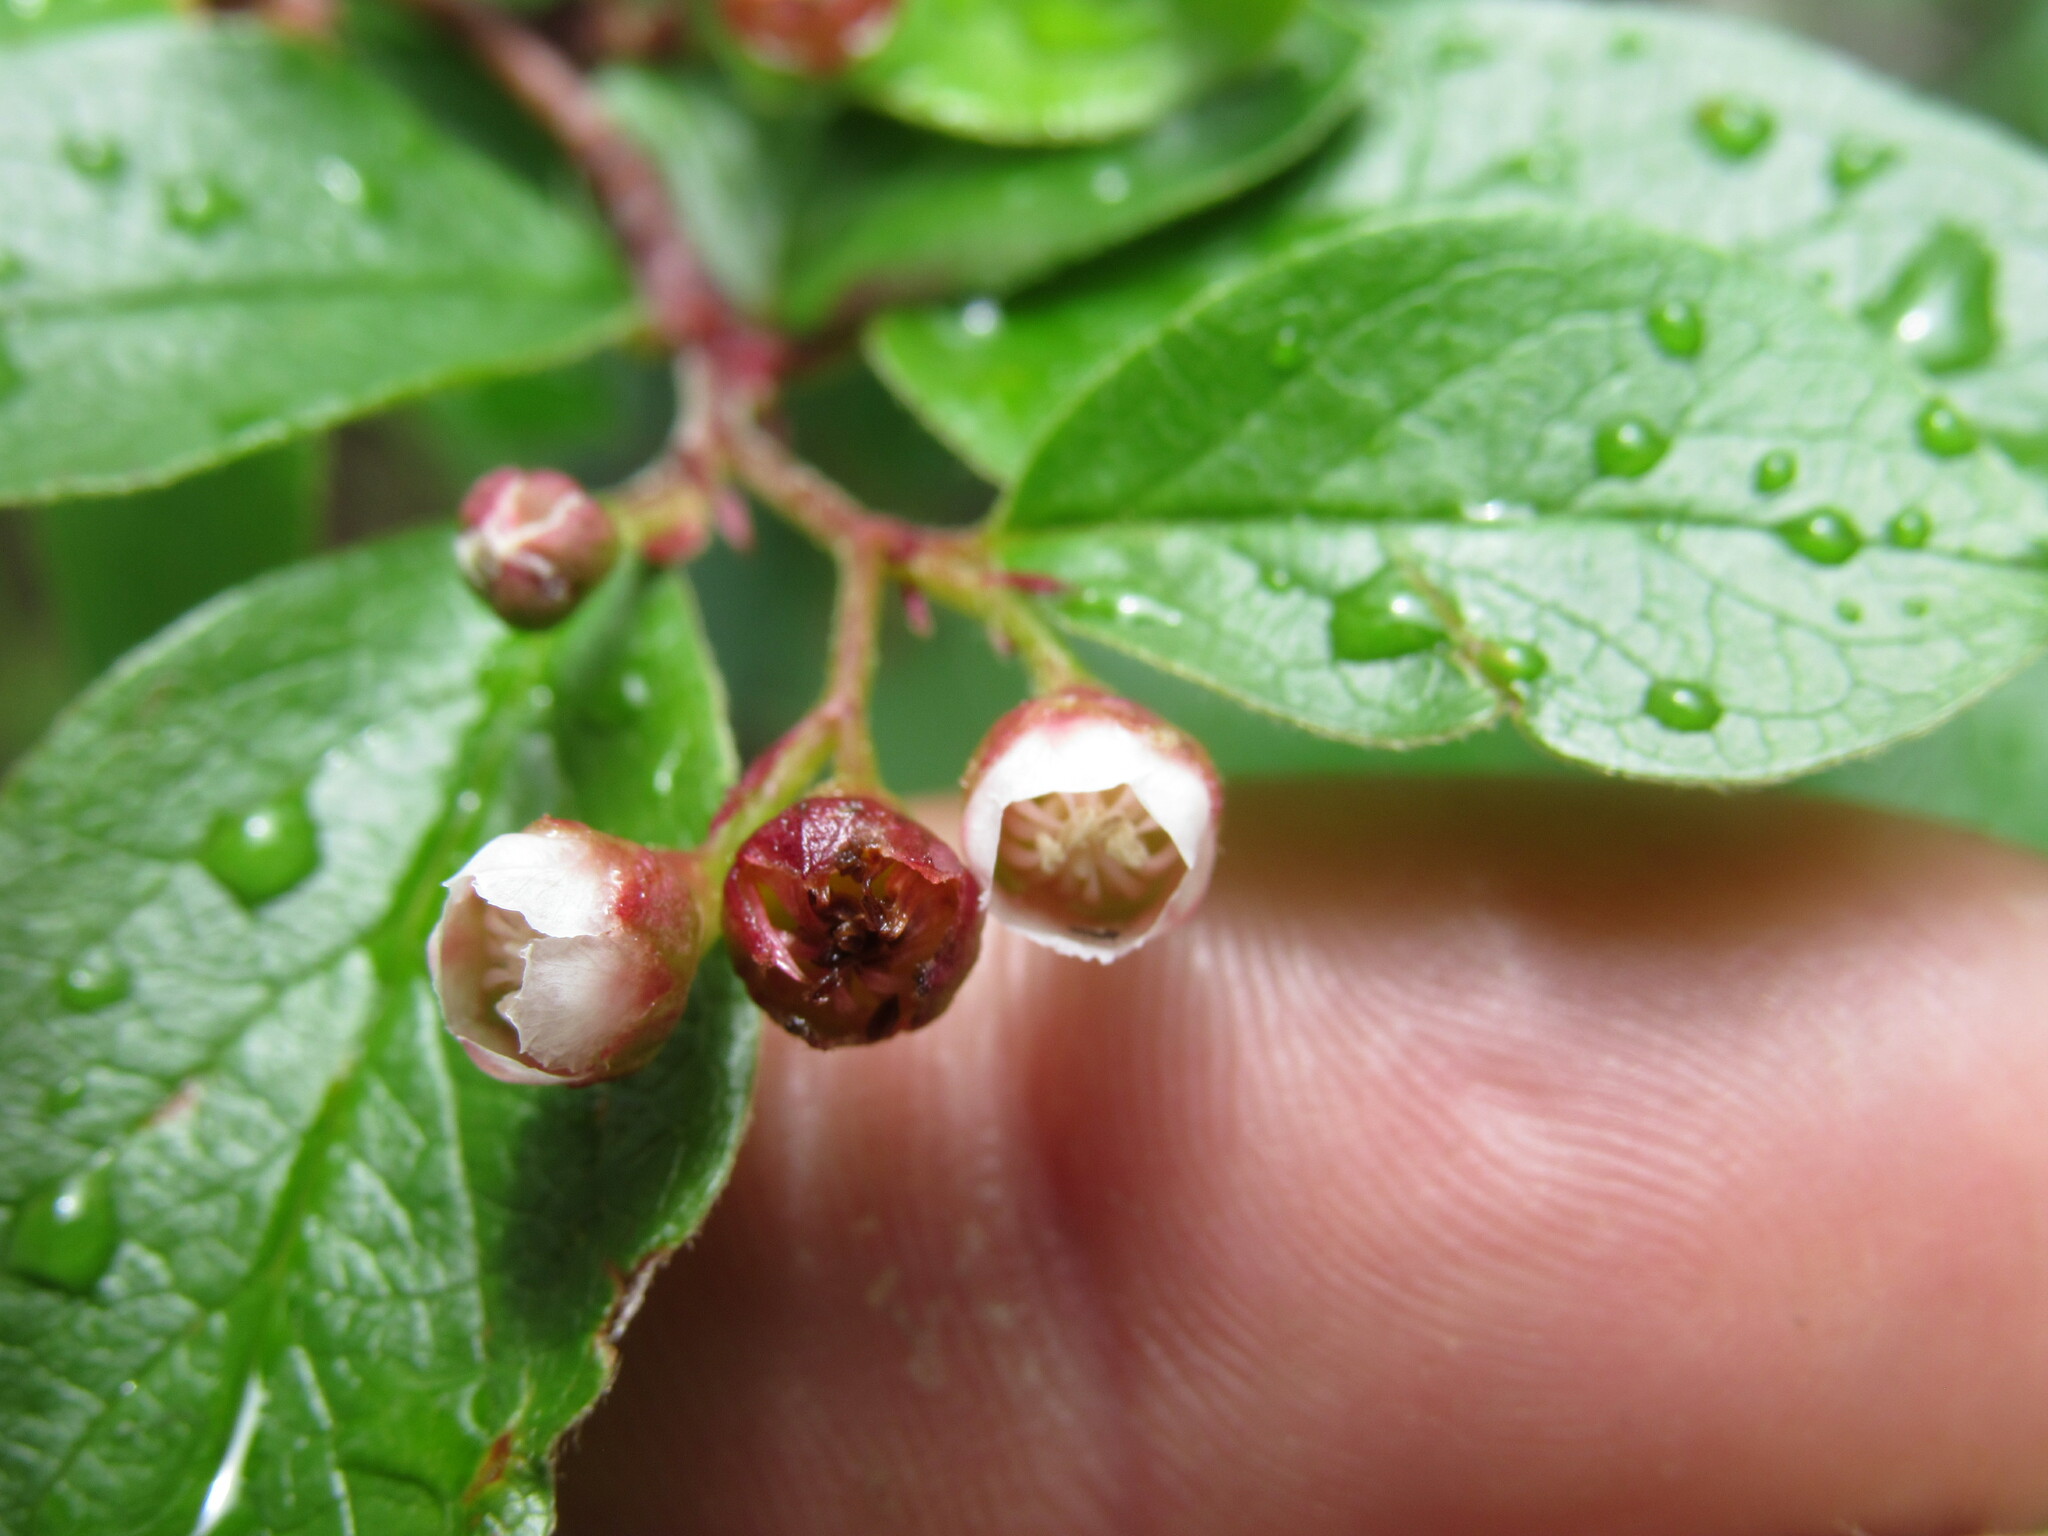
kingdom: Plantae
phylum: Tracheophyta
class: Magnoliopsida
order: Rosales
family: Rosaceae
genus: Cotoneaster
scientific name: Cotoneaster acutifolius
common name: Peking cotoneaster
